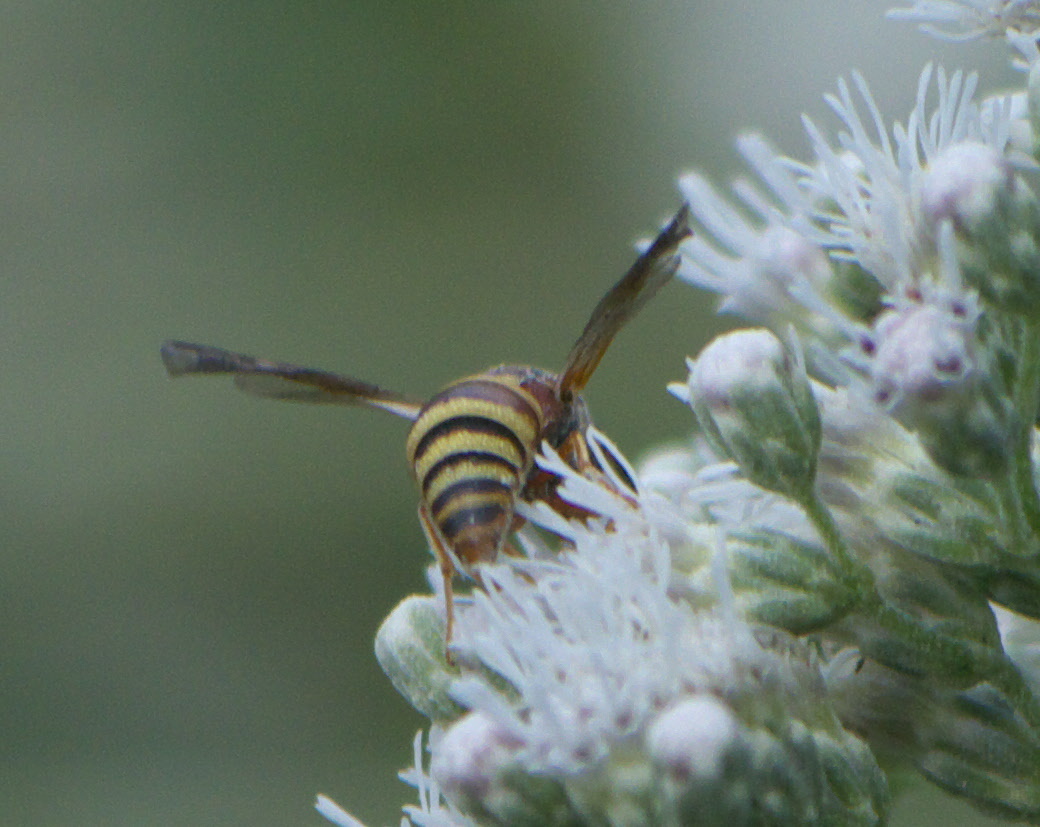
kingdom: Animalia
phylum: Arthropoda
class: Insecta
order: Hymenoptera
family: Eumenidae
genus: Euodynerus
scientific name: Euodynerus hidalgo
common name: Wasp
